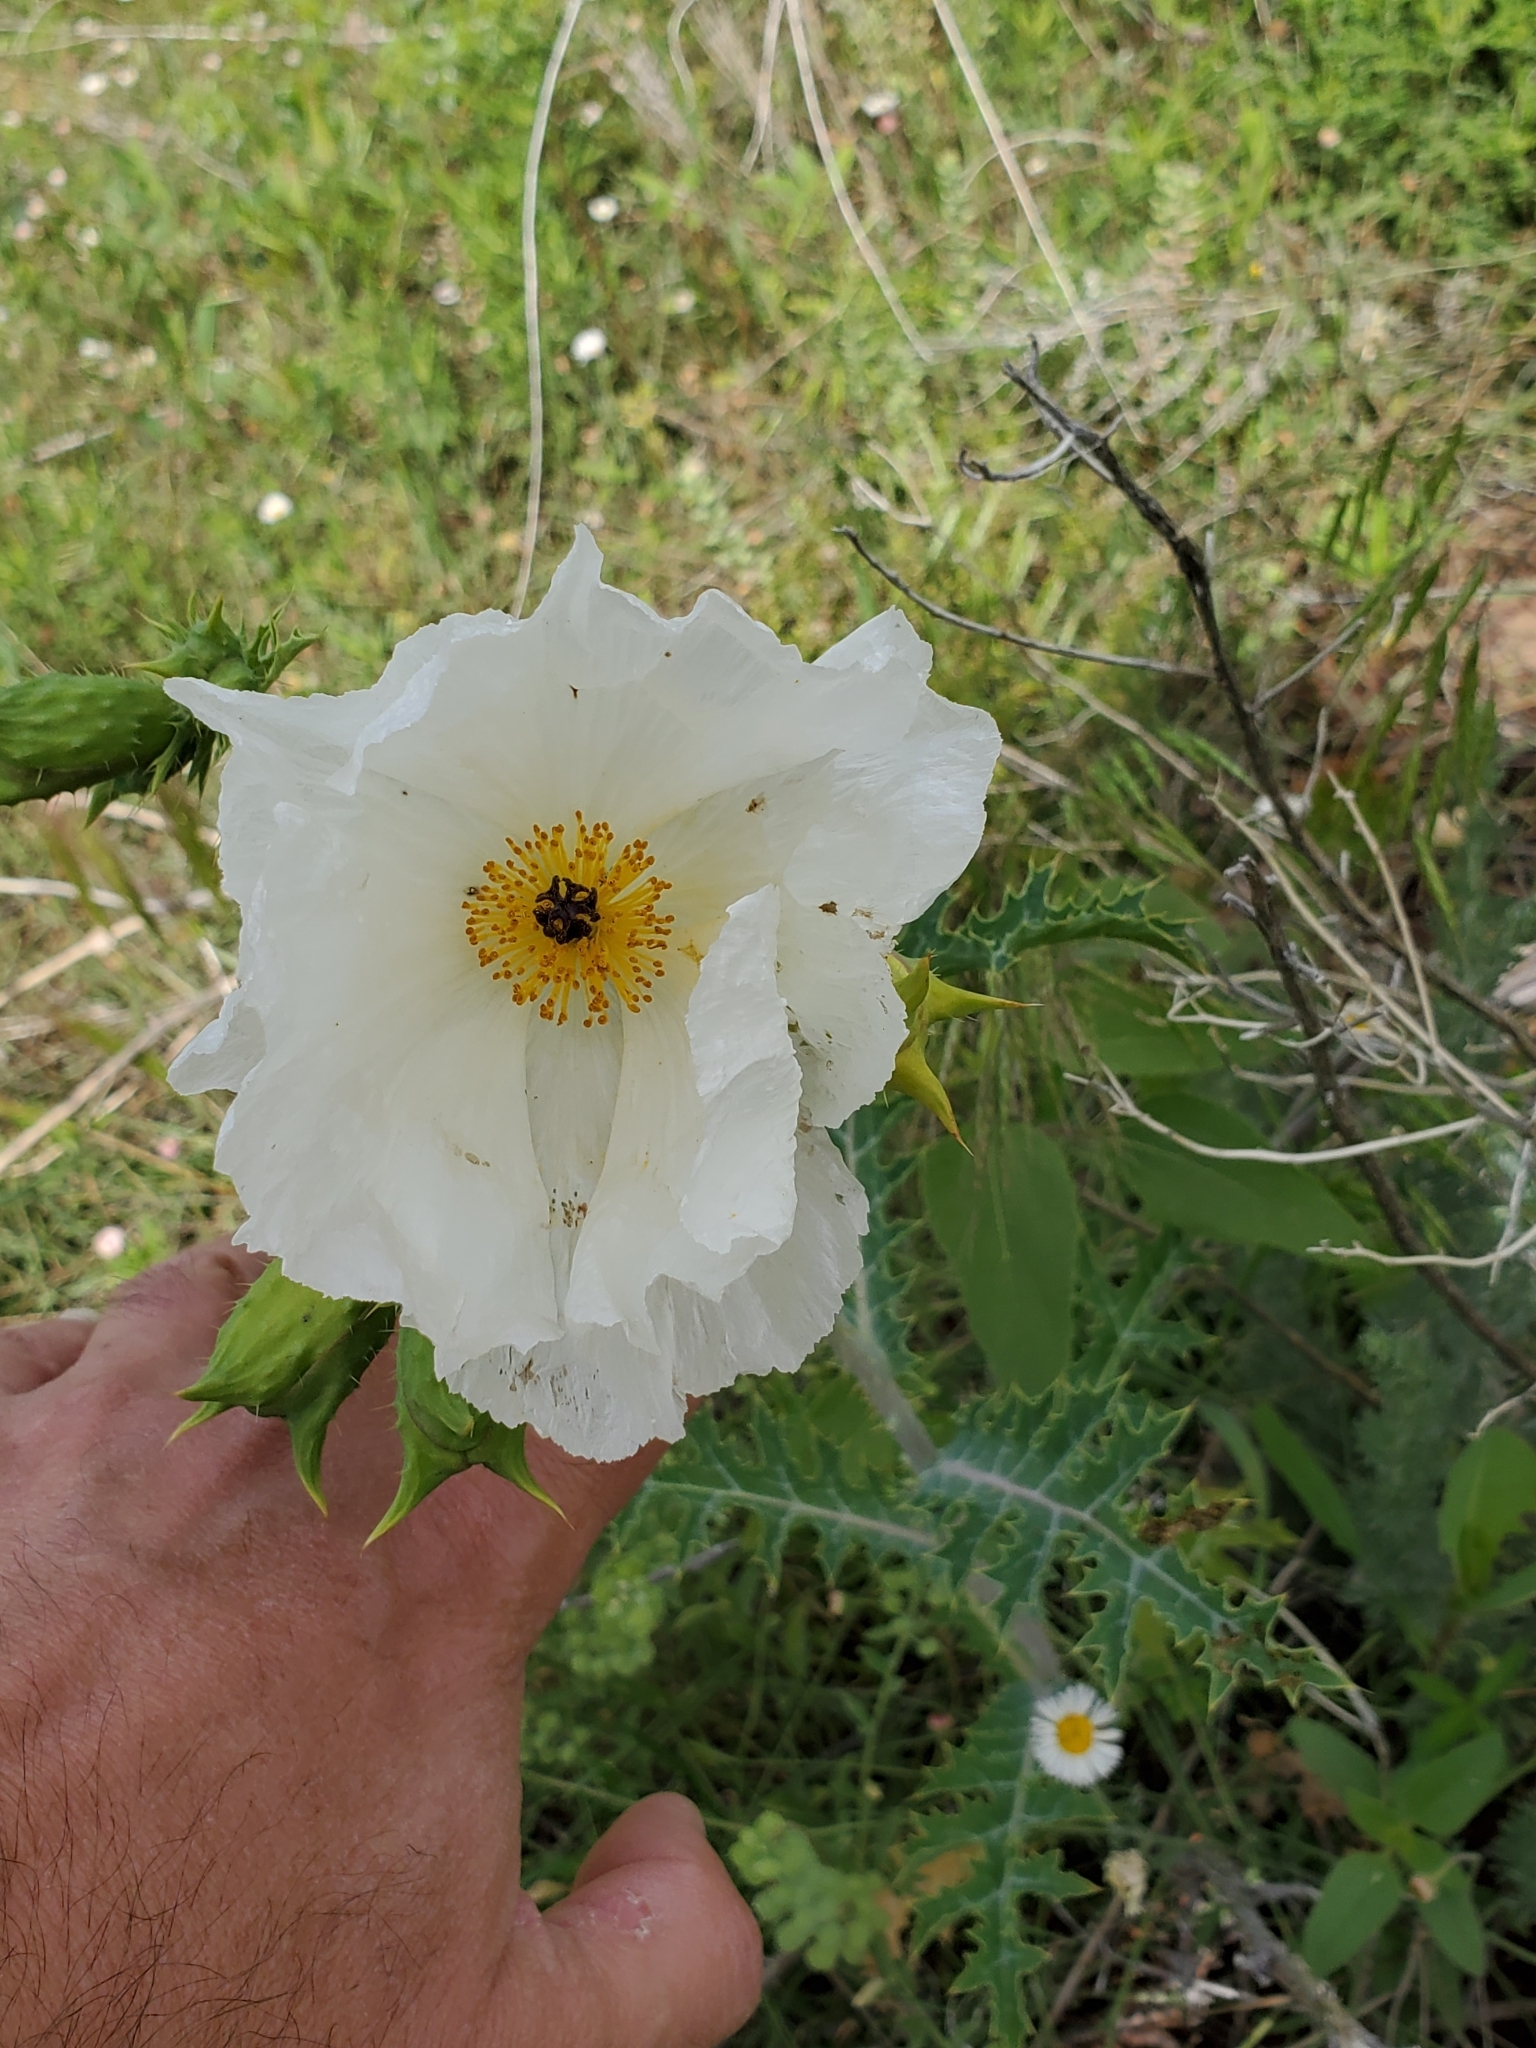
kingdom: Plantae
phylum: Tracheophyta
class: Magnoliopsida
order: Ranunculales
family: Papaveraceae
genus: Argemone
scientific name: Argemone polyanthemos
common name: Plains prickly-poppy
